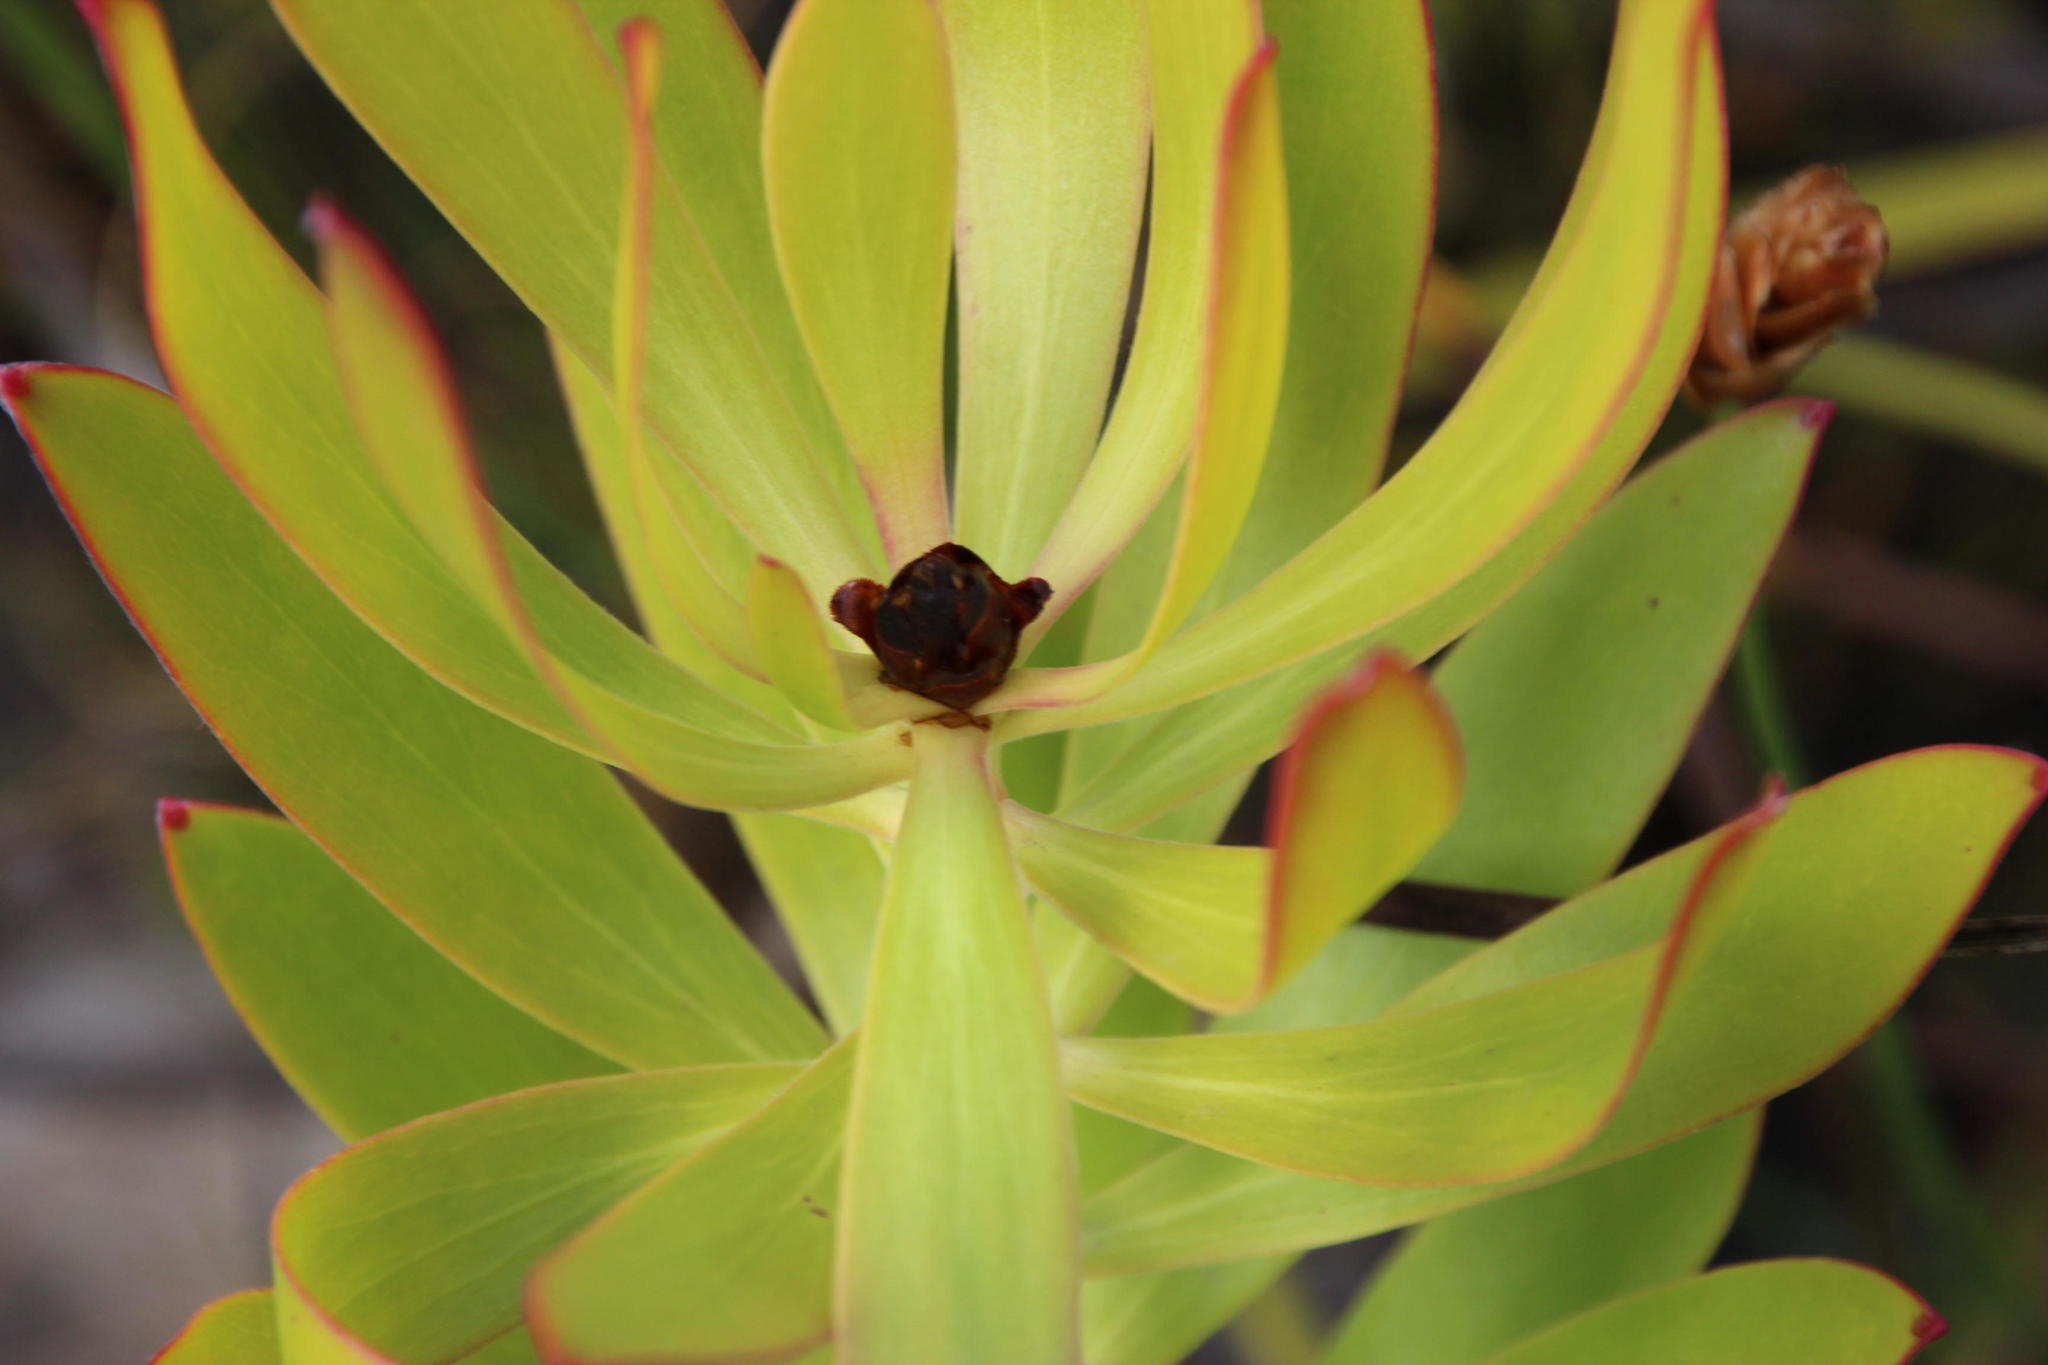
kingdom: Plantae
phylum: Tracheophyta
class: Magnoliopsida
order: Proteales
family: Proteaceae
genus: Leucadendron
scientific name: Leucadendron microcephalum
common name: Oilbract conebush
